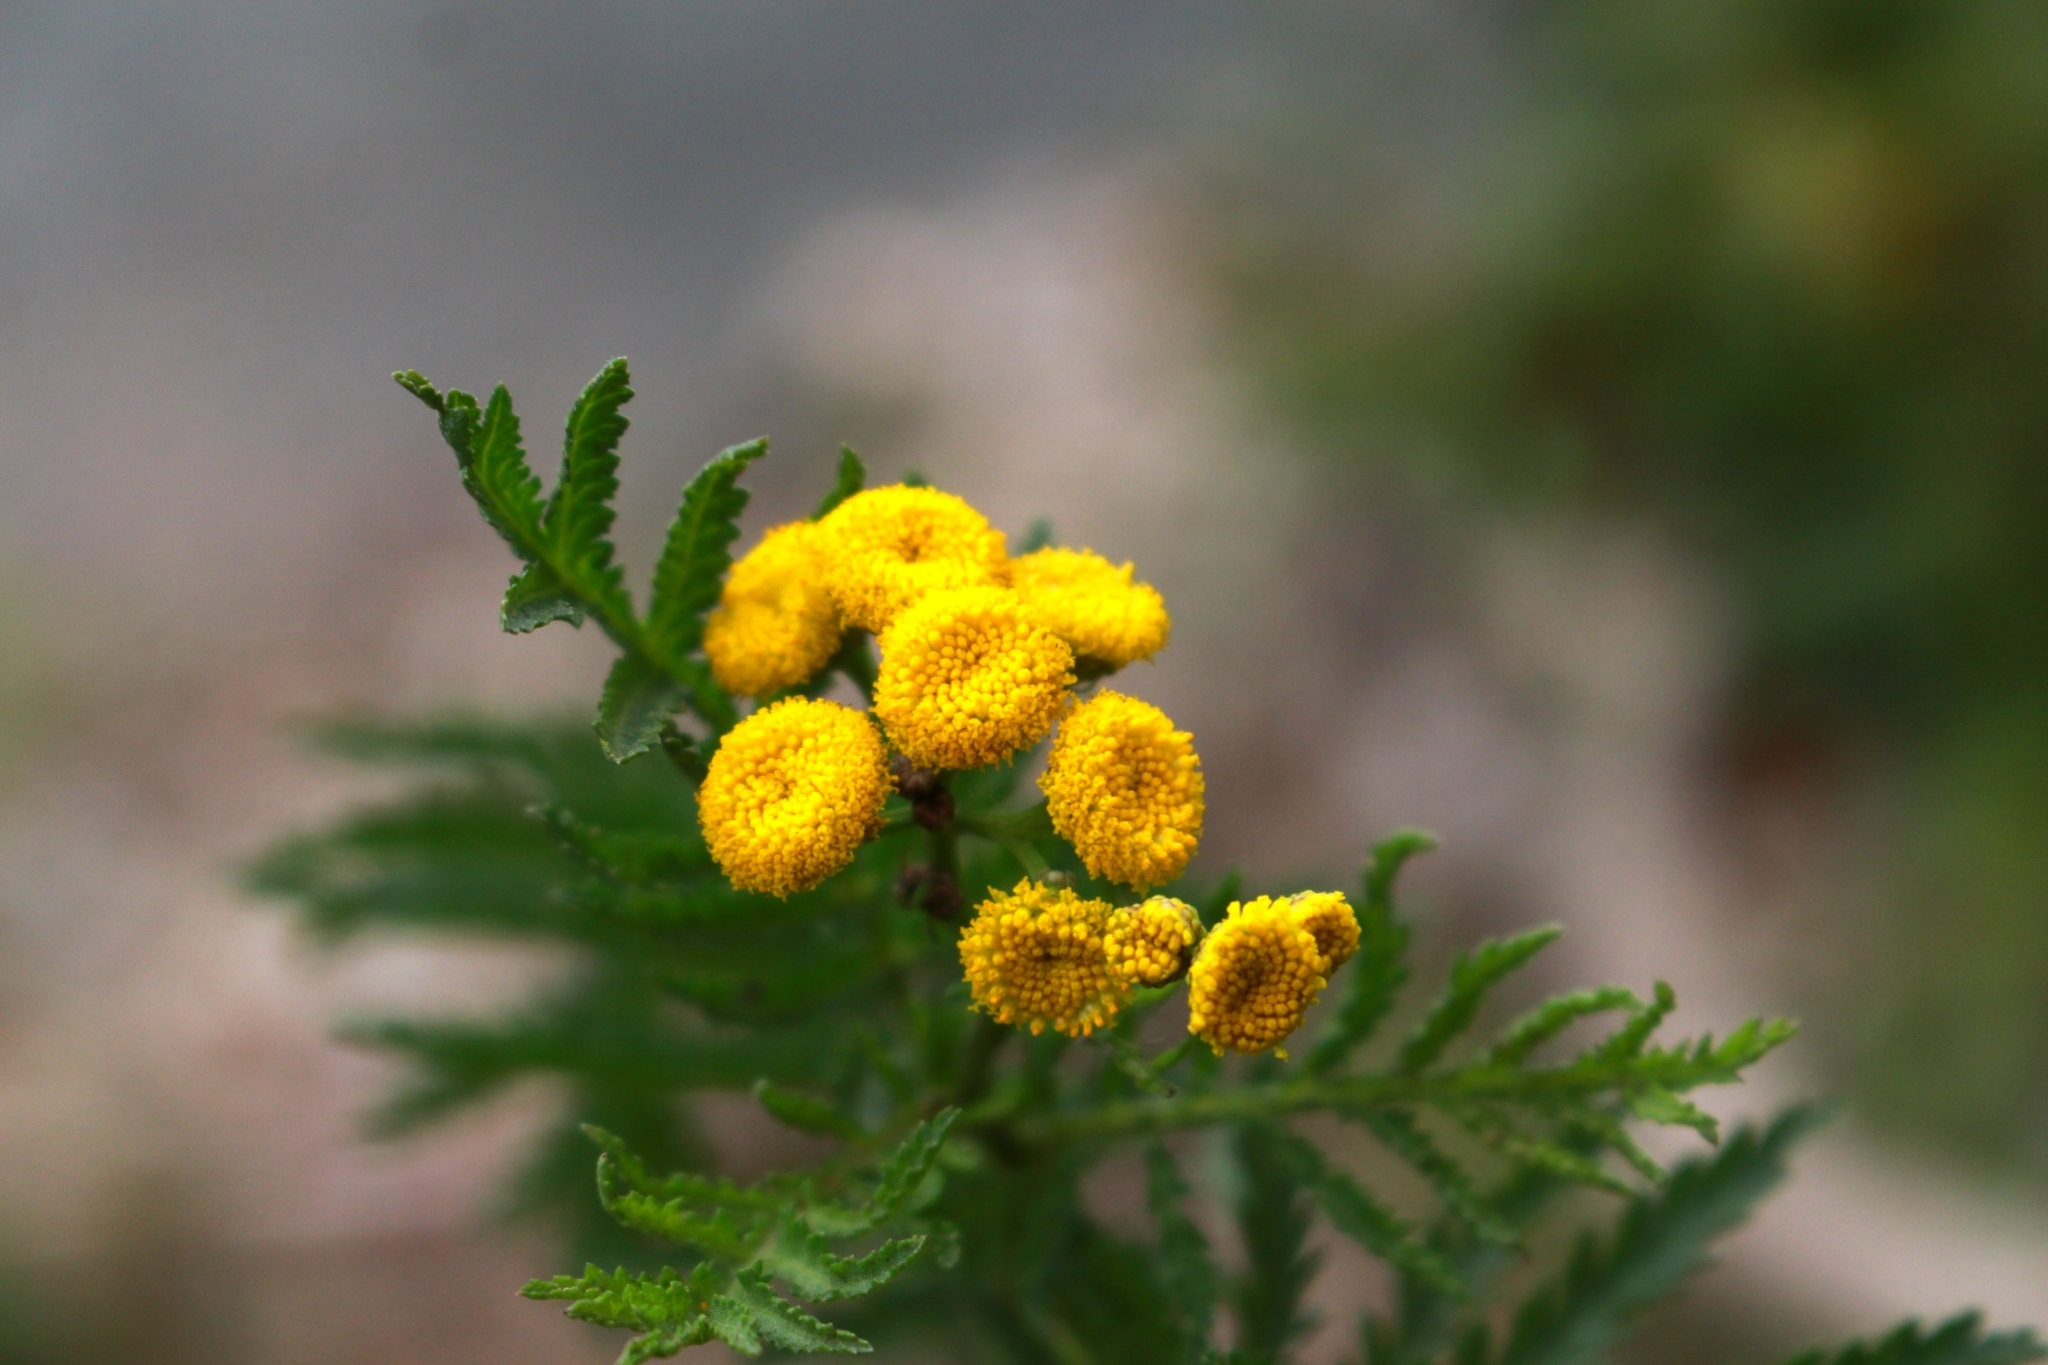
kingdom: Plantae
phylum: Tracheophyta
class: Magnoliopsida
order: Asterales
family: Asteraceae
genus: Tanacetum
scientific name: Tanacetum vulgare
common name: Common tansy
